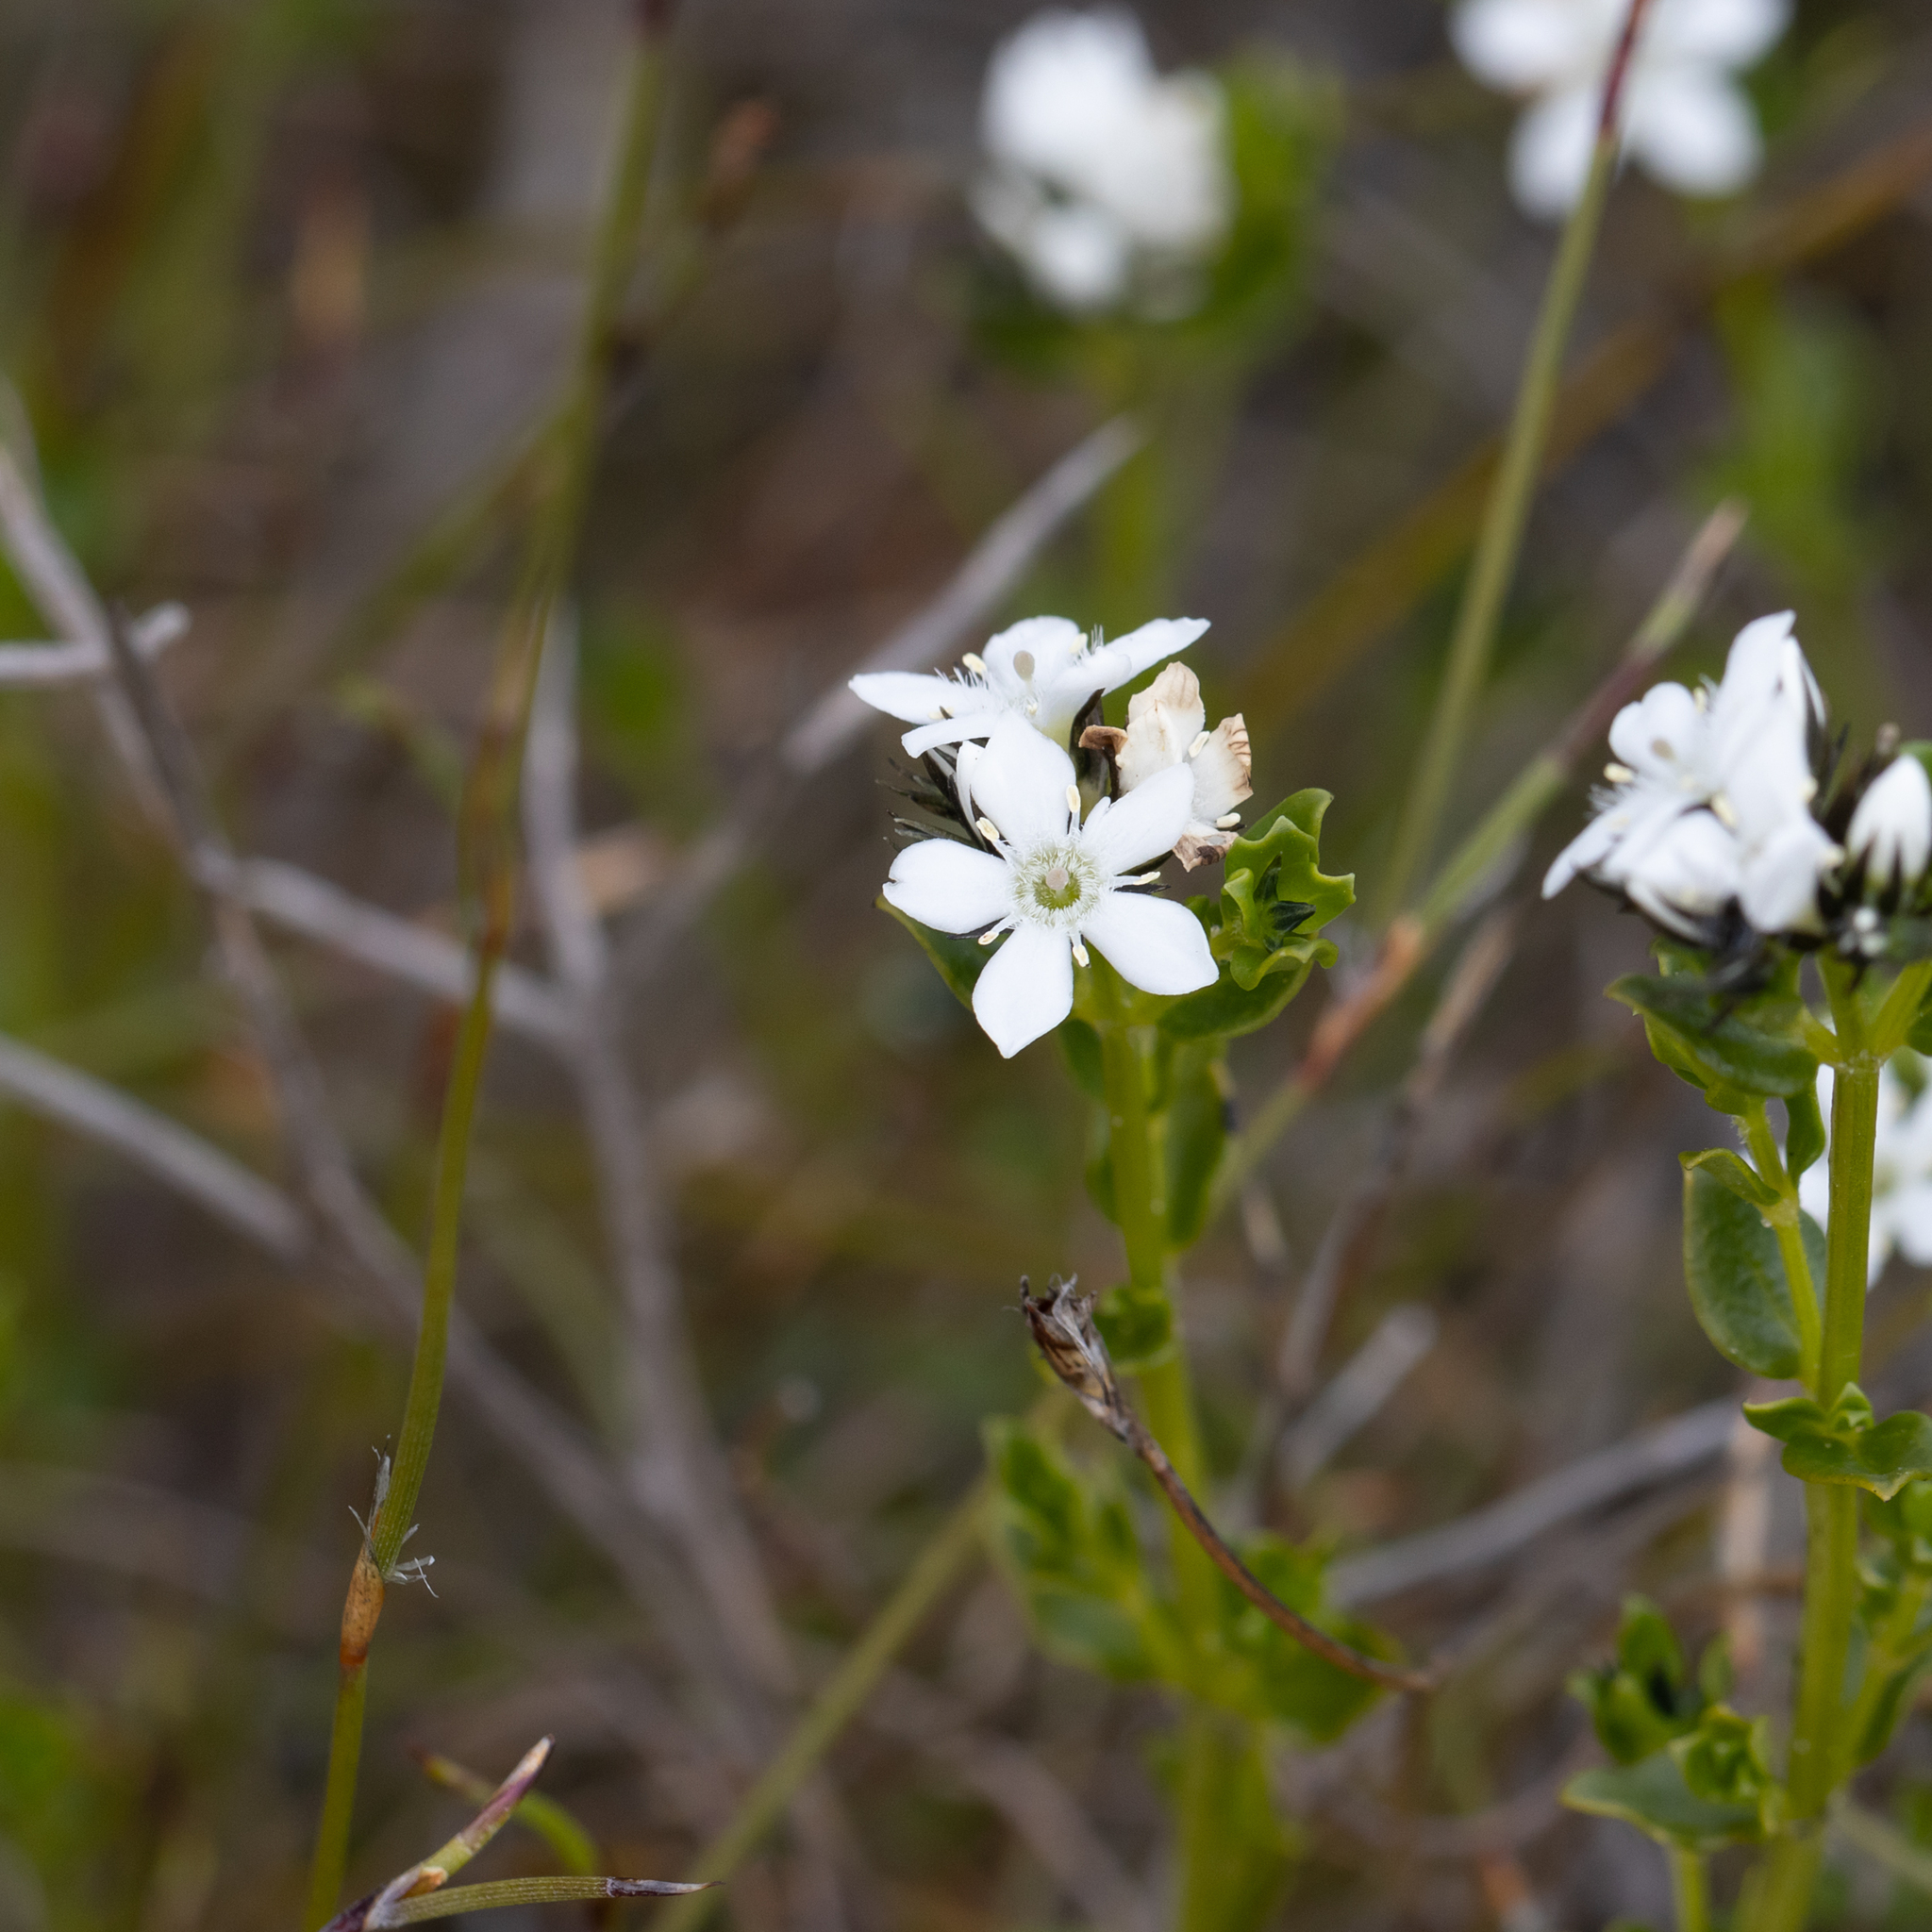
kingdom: Plantae
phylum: Tracheophyta
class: Magnoliopsida
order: Gentianales
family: Loganiaceae
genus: Orianthera
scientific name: Orianthera serpyllifolia
